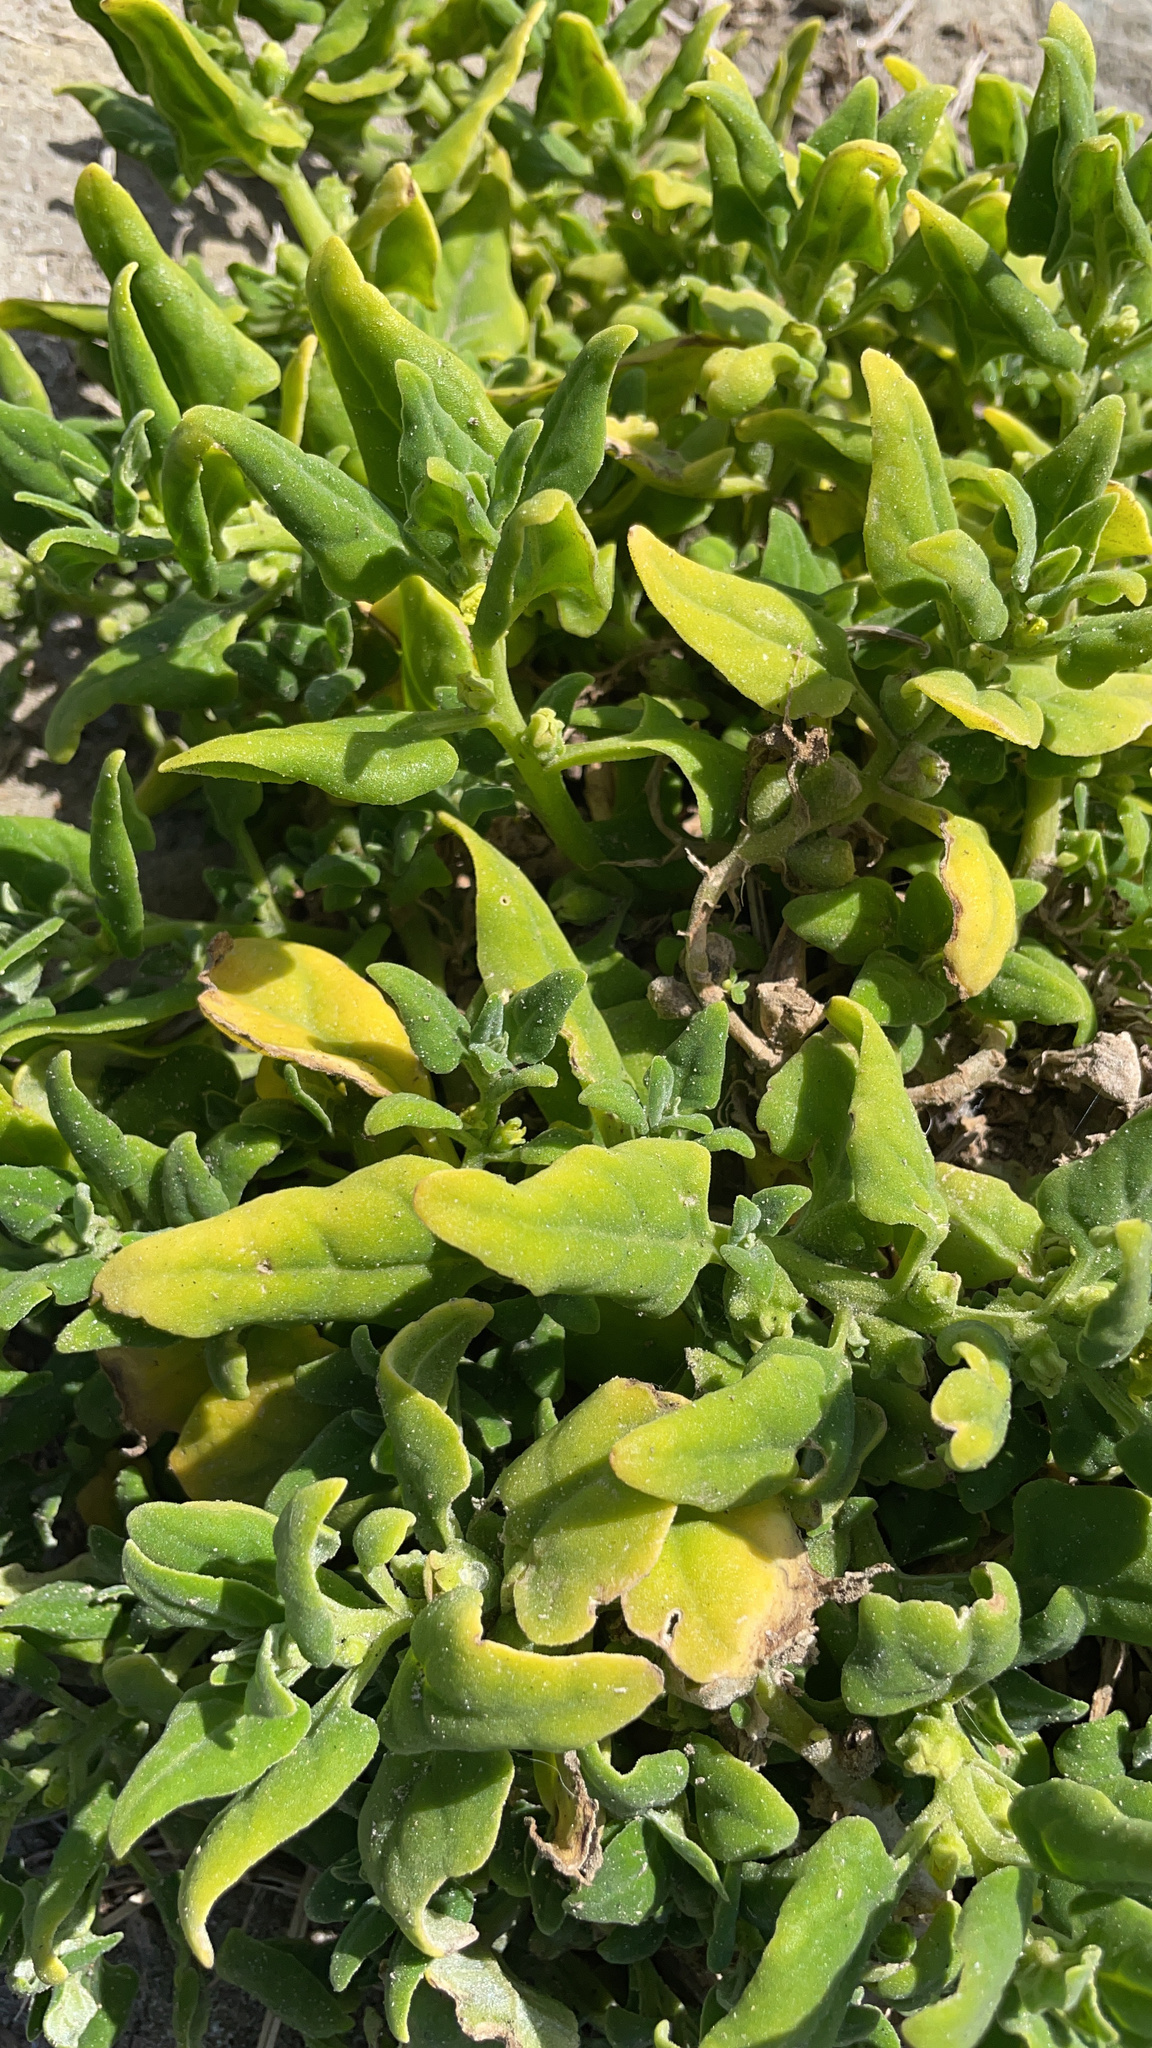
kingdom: Plantae
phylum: Tracheophyta
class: Magnoliopsida
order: Caryophyllales
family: Aizoaceae
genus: Tetragonia
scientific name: Tetragonia tetragonoides
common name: New zealand-spinach
